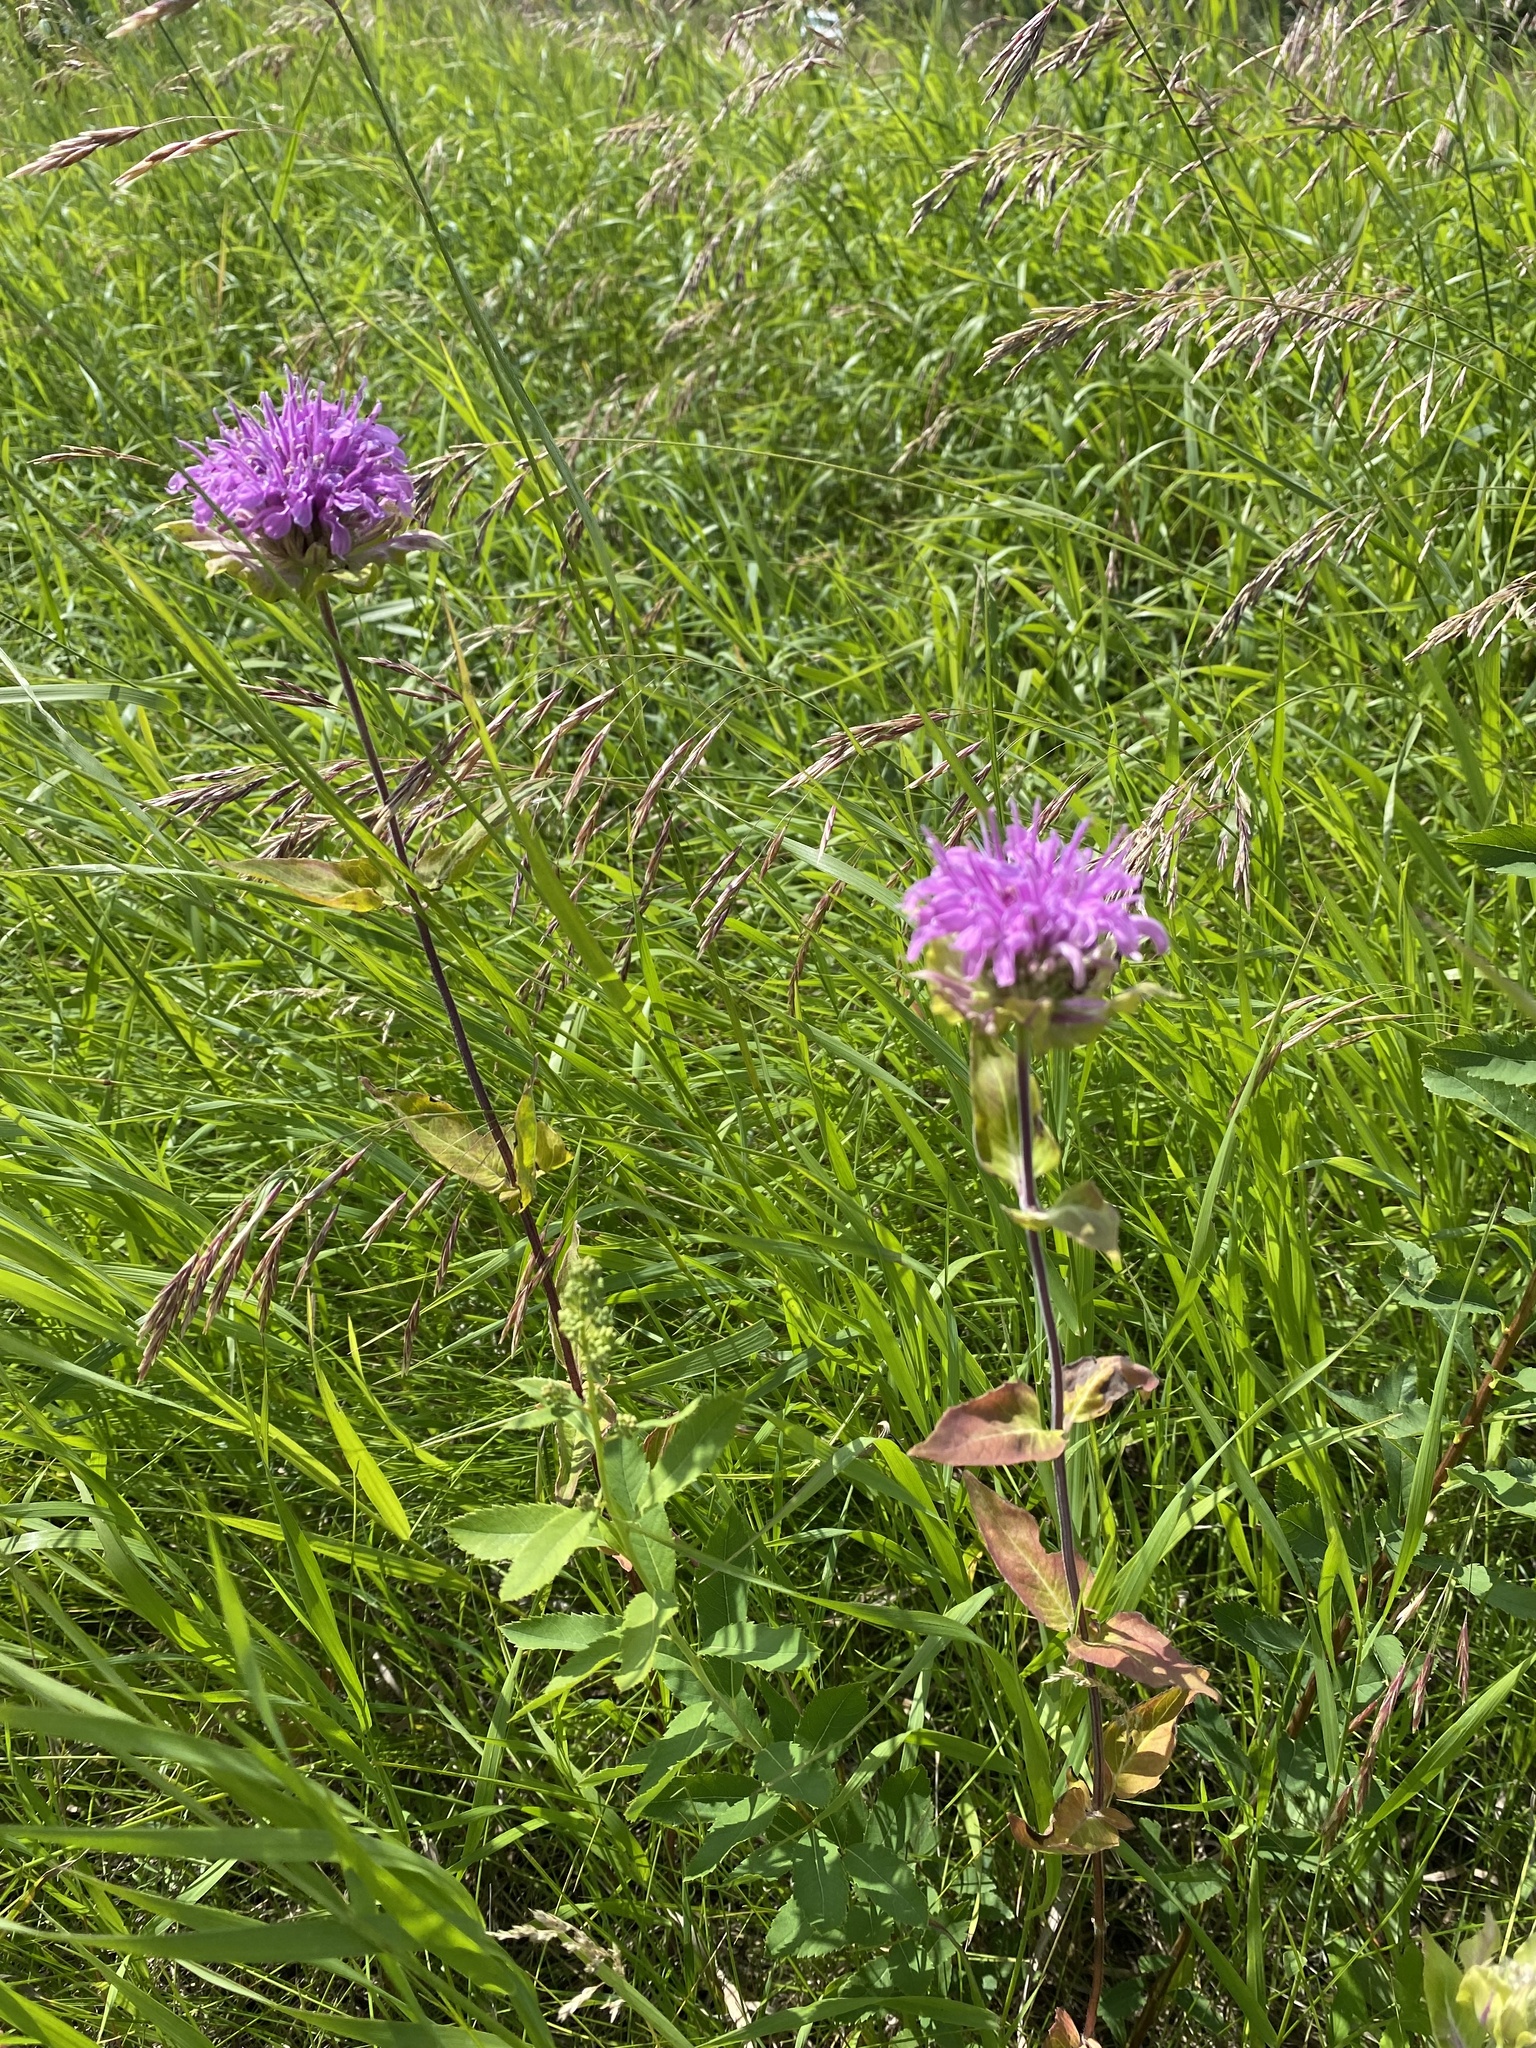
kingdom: Plantae
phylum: Tracheophyta
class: Magnoliopsida
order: Lamiales
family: Lamiaceae
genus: Monarda
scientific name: Monarda fistulosa
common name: Purple beebalm
